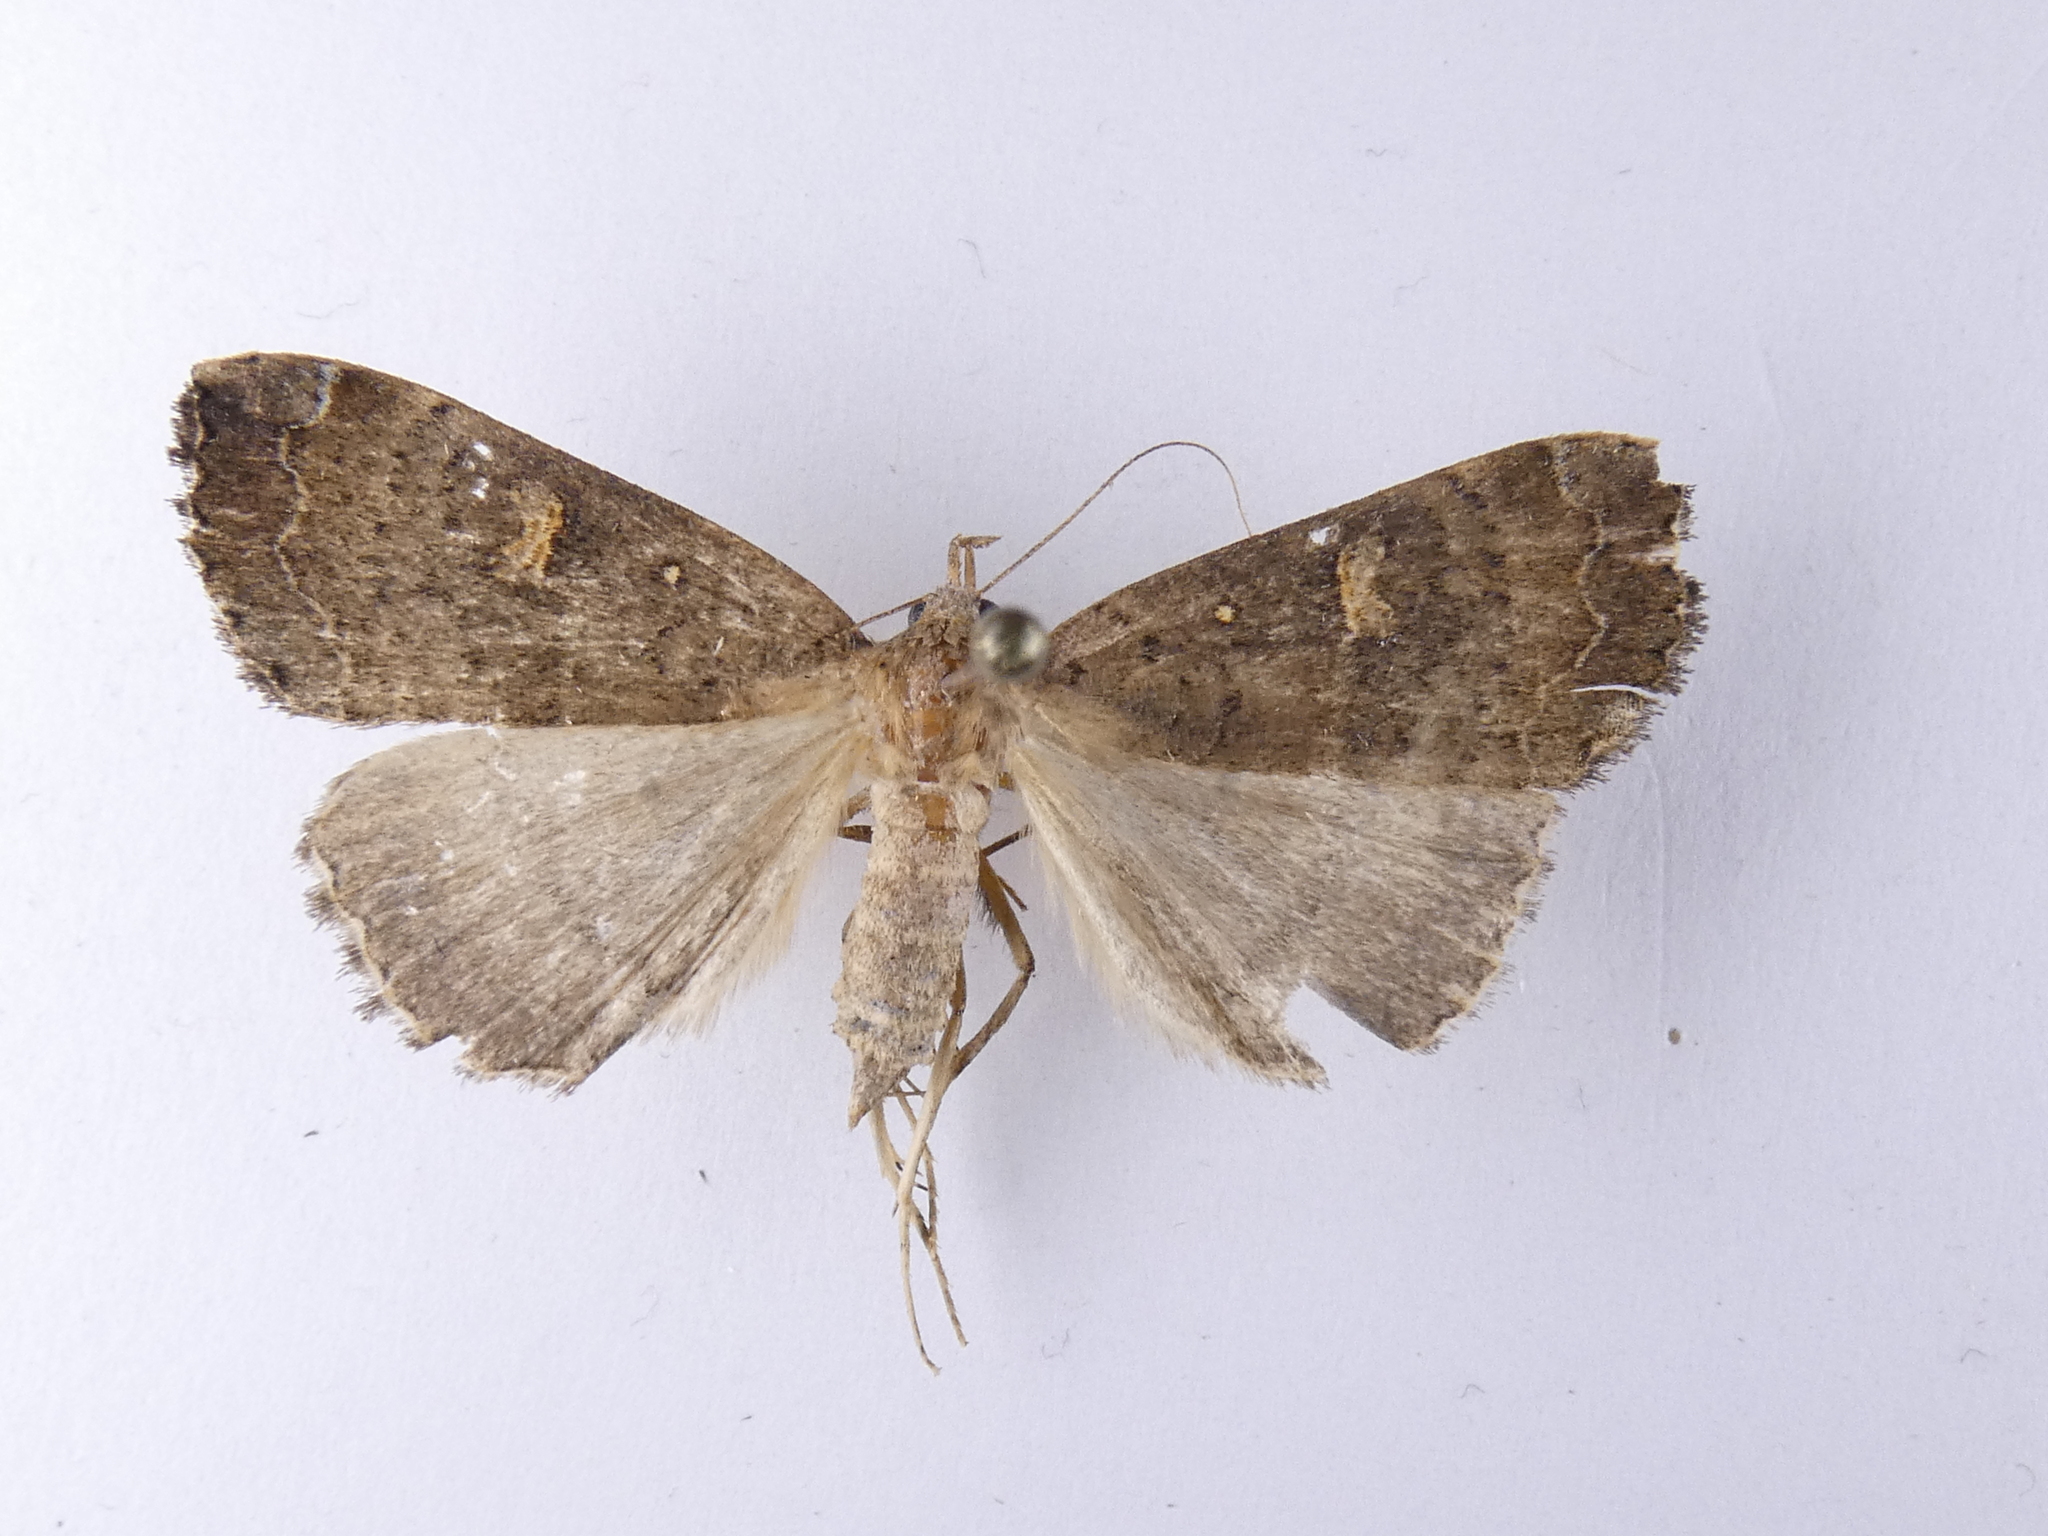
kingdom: Animalia
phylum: Arthropoda
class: Insecta
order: Lepidoptera
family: Erebidae
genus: Rhapsa
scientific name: Rhapsa scotosialis
